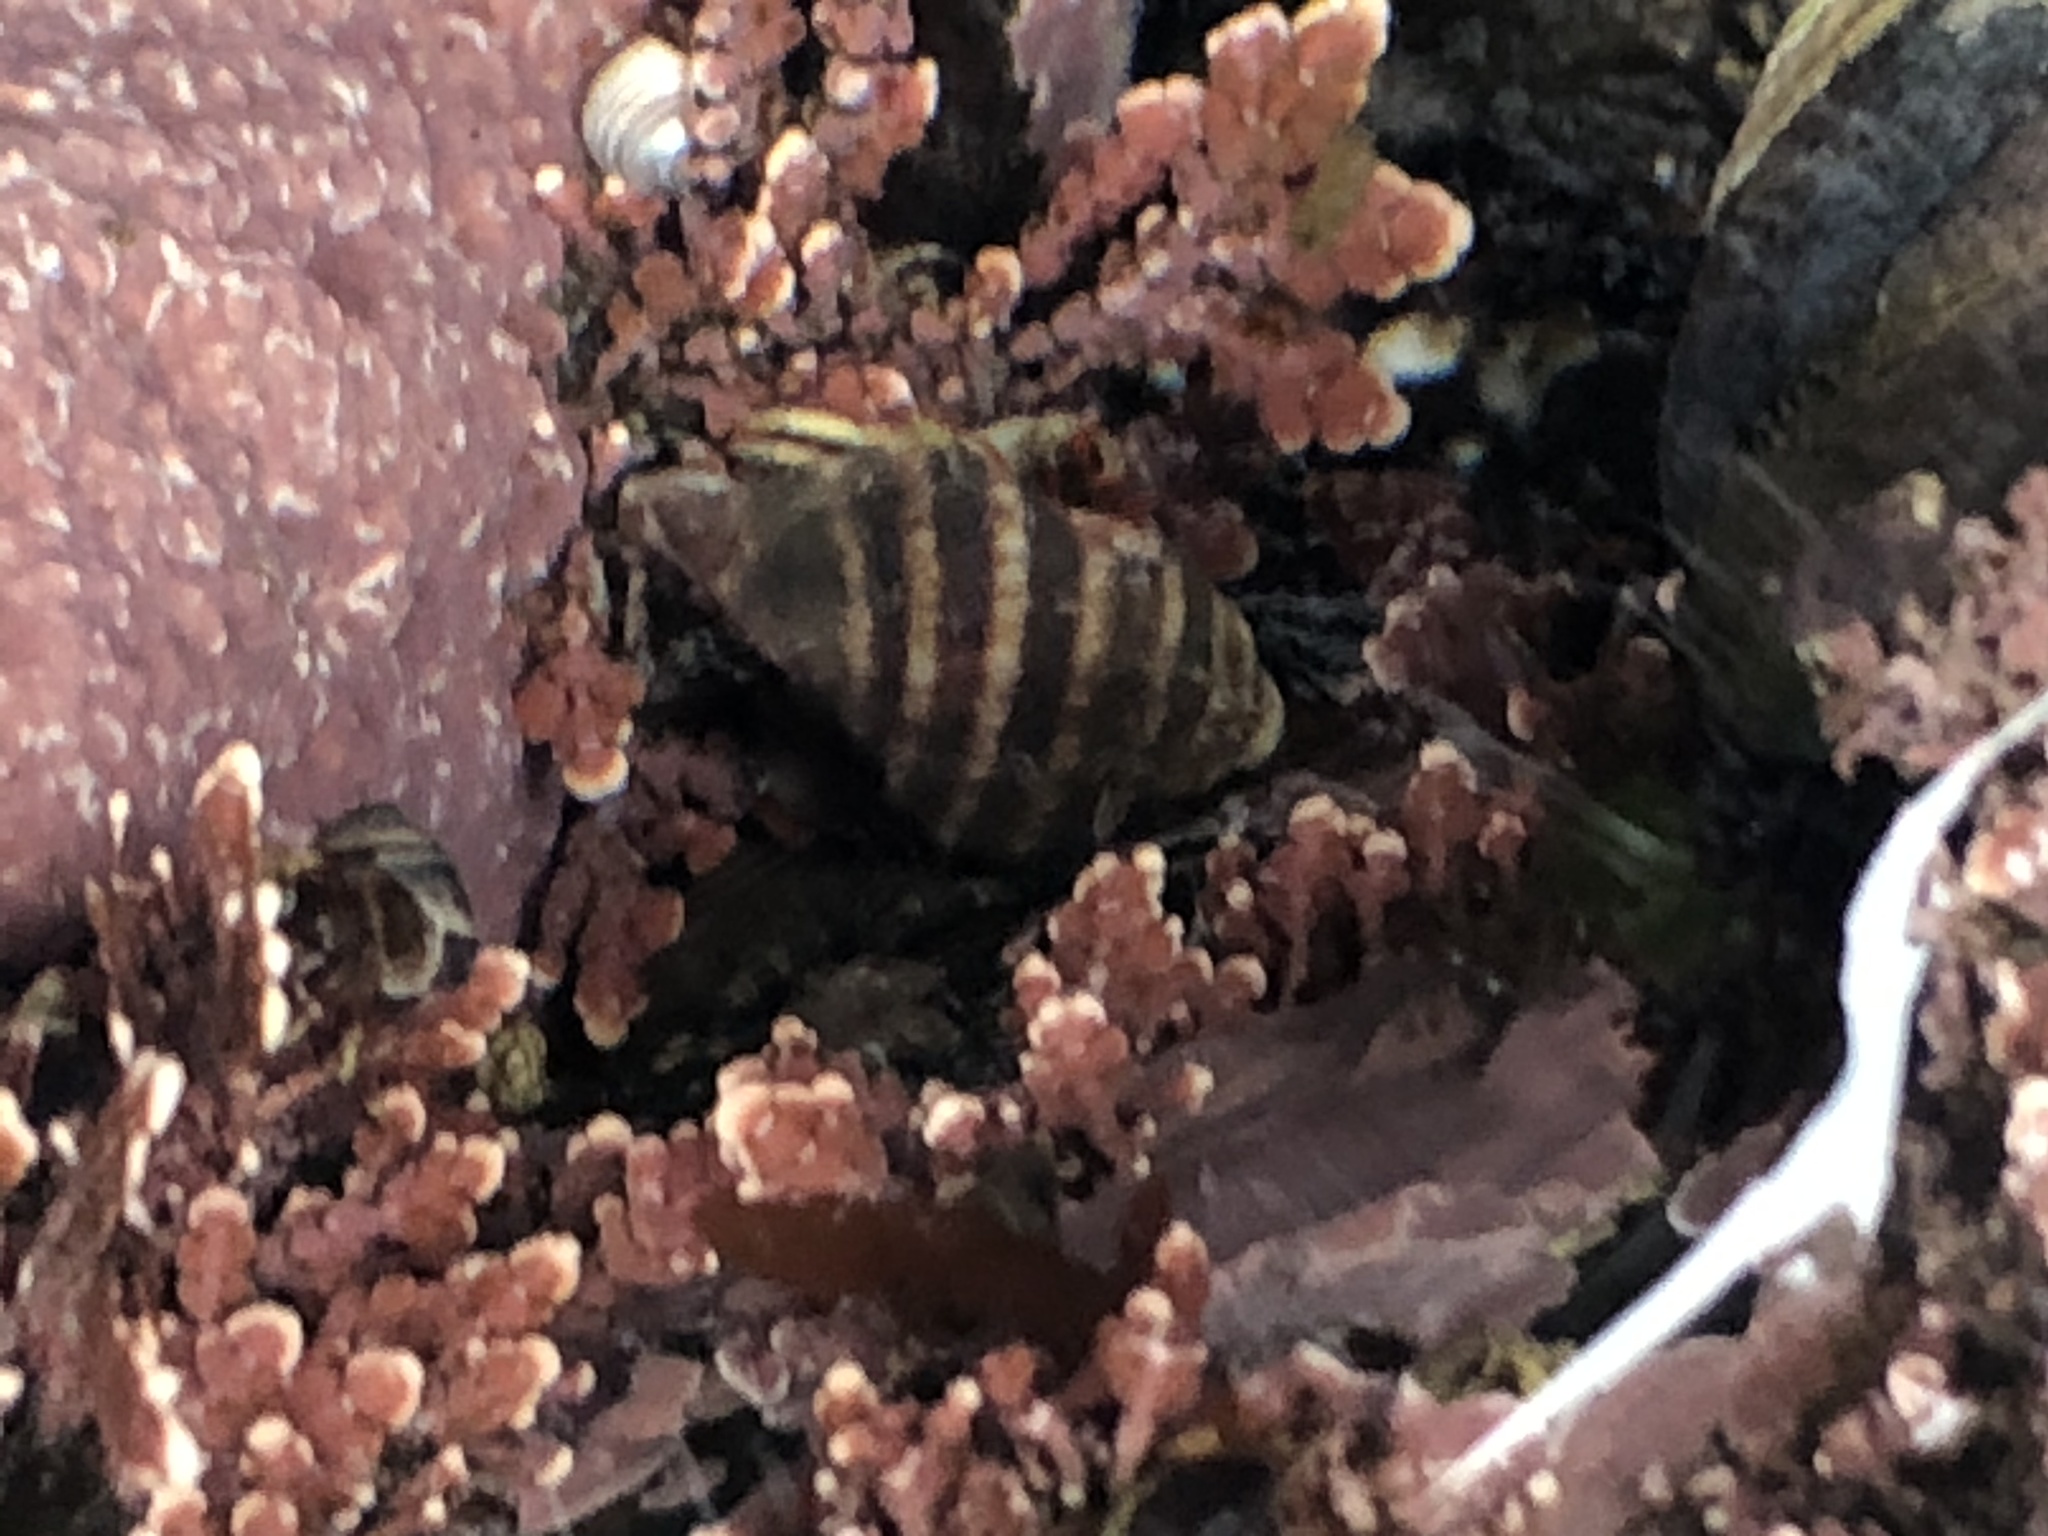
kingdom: Animalia
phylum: Mollusca
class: Gastropoda
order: Neogastropoda
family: Muricidae
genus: Nucella
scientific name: Nucella ostrina
